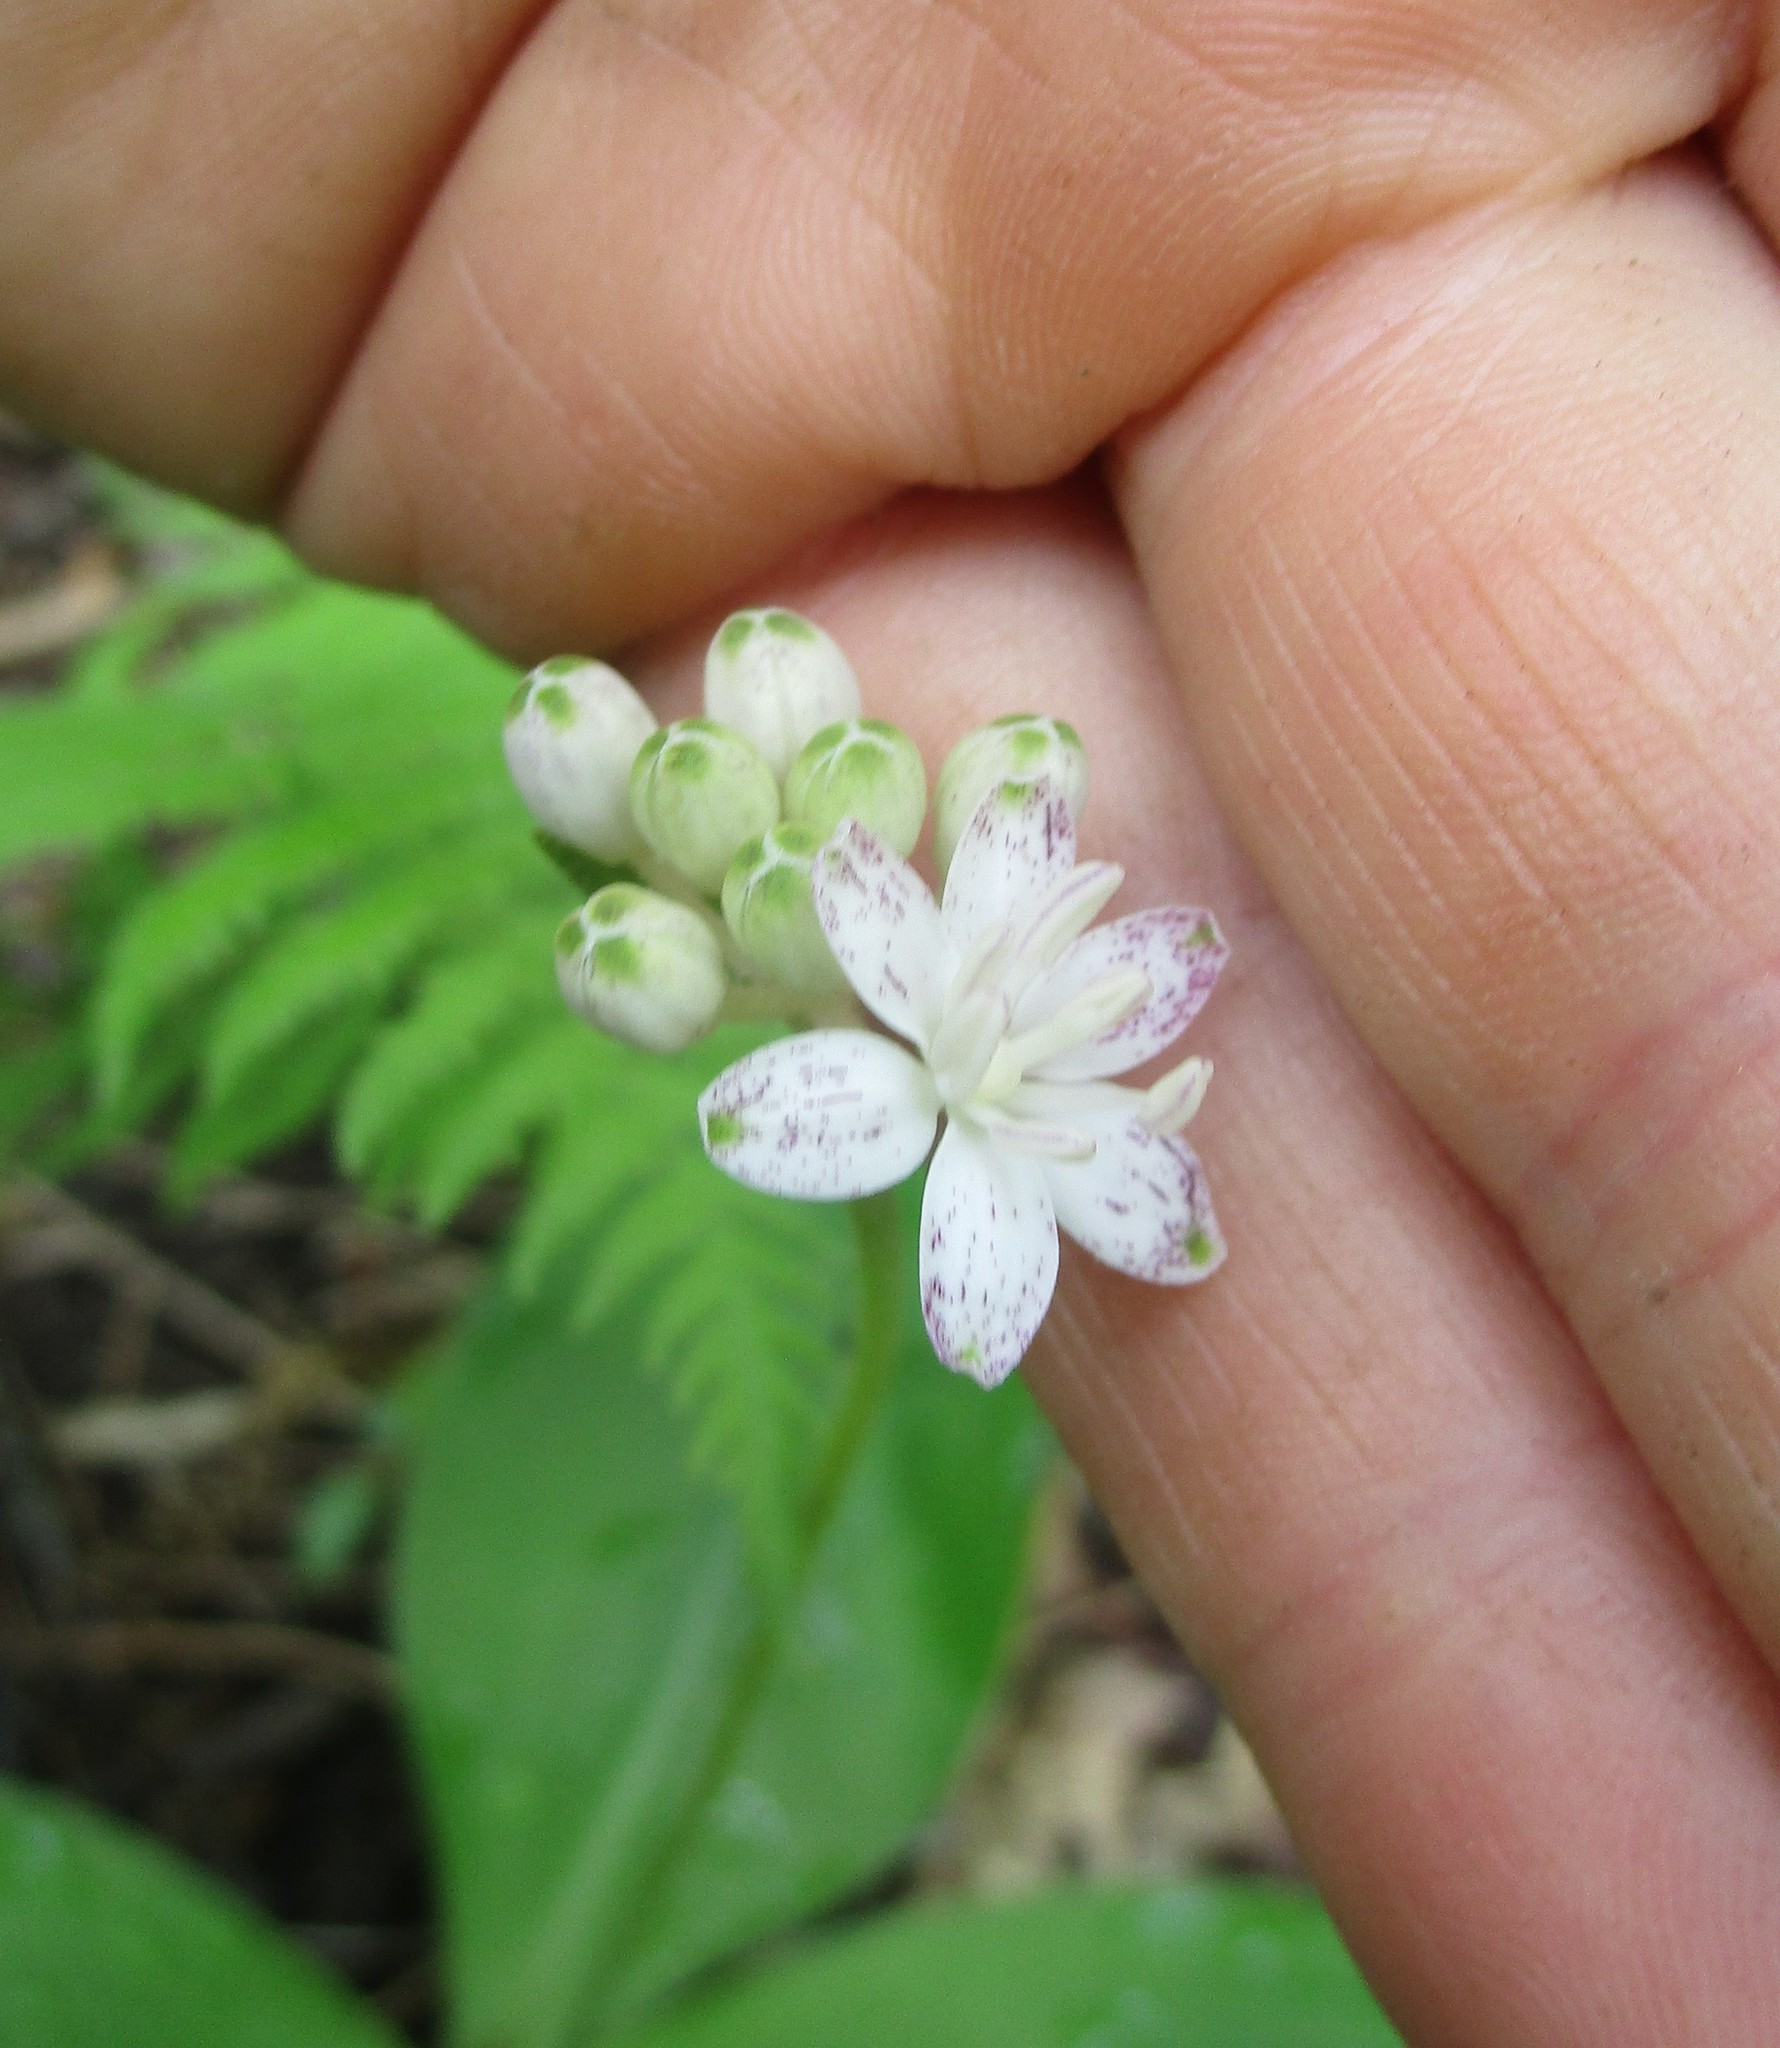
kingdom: Plantae
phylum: Tracheophyta
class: Liliopsida
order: Liliales
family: Liliaceae
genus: Clintonia
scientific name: Clintonia umbellulata
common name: Speckle wood-lily
